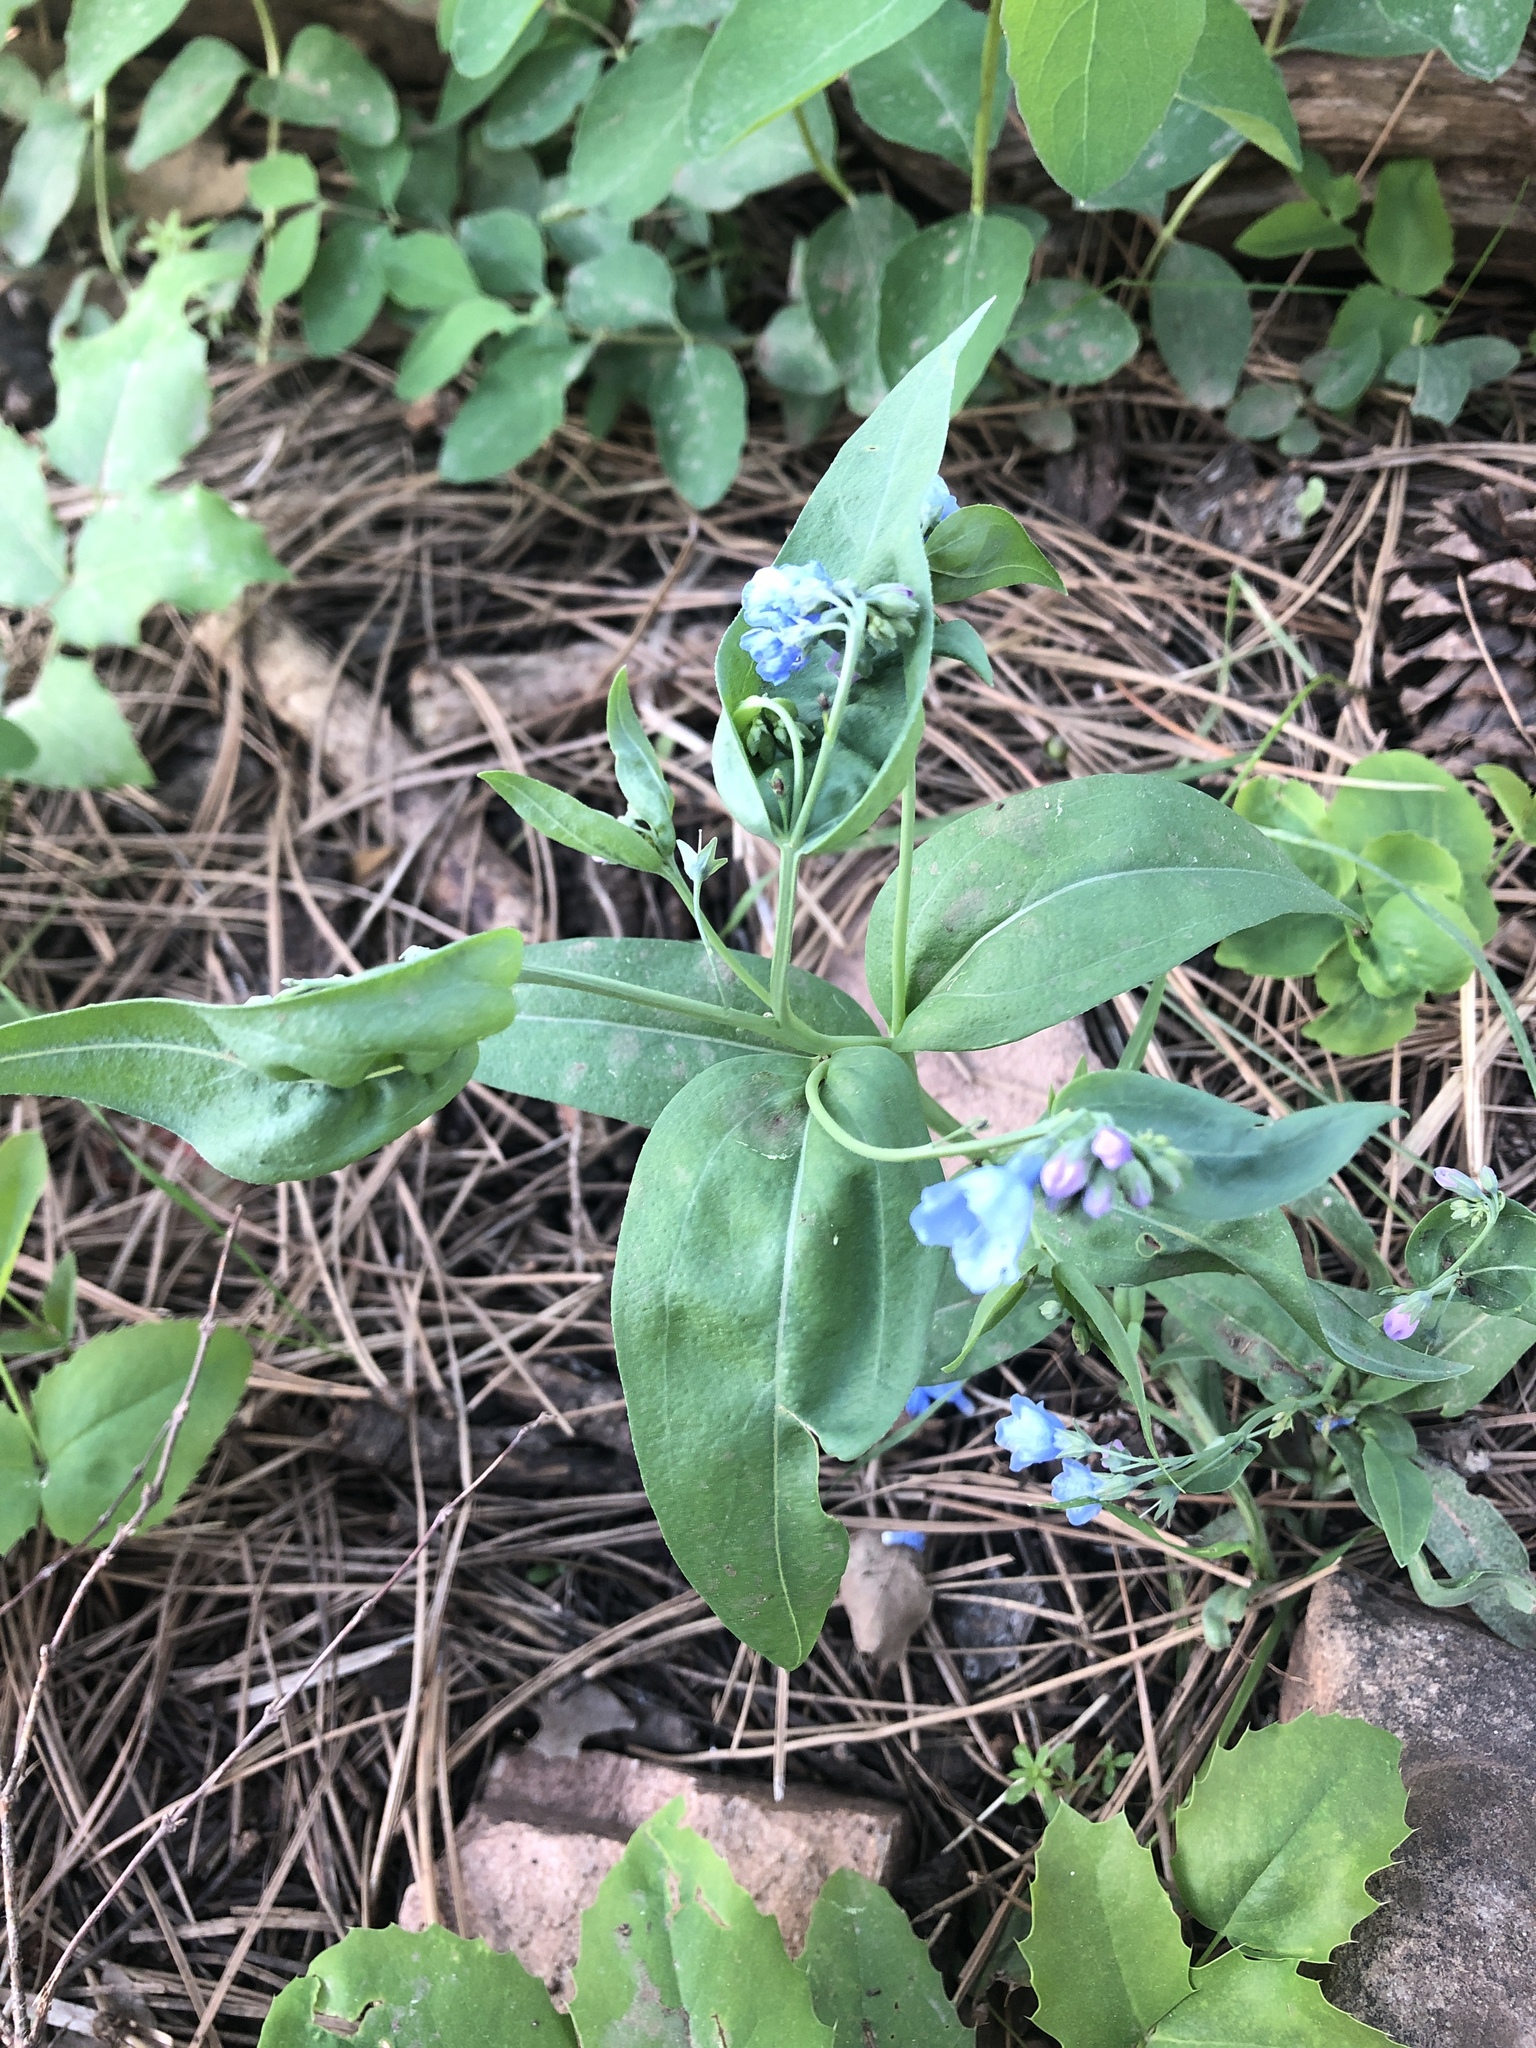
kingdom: Plantae
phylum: Tracheophyta
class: Magnoliopsida
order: Boraginales
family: Boraginaceae
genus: Mertensia
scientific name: Mertensia ciliata
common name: Tall chiming-bells
